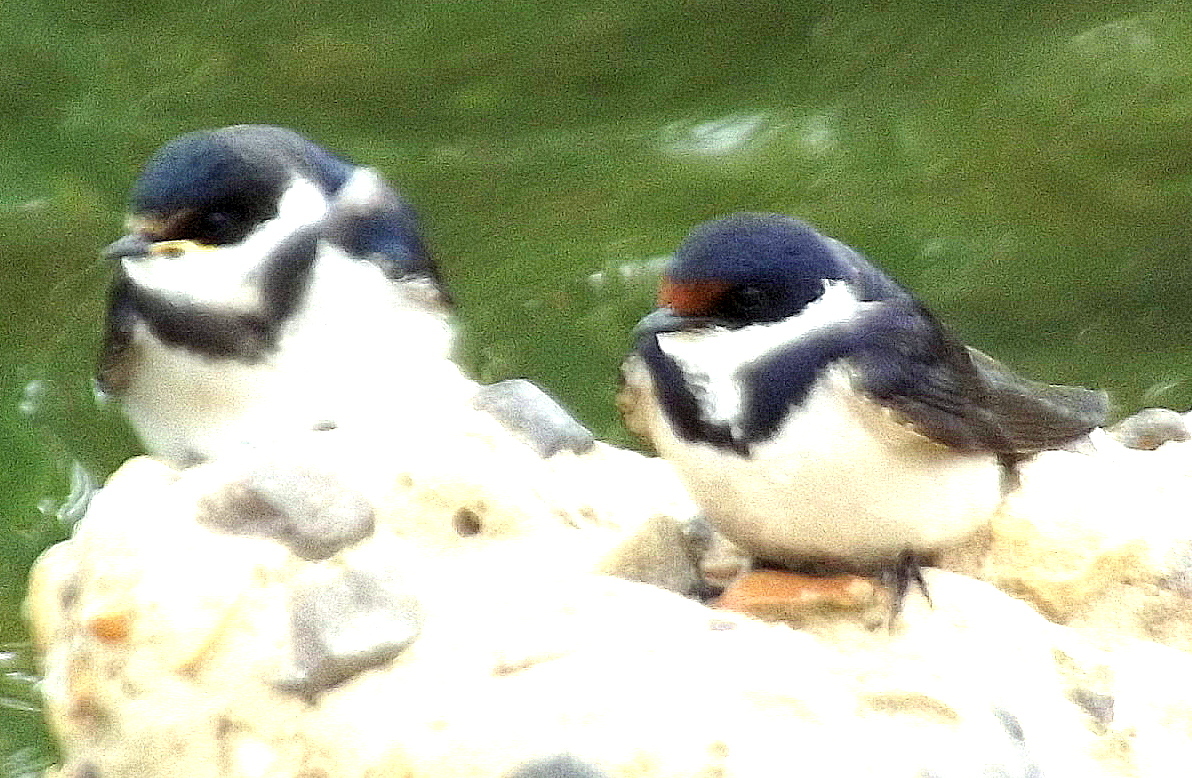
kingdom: Animalia
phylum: Chordata
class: Aves
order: Passeriformes
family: Hirundinidae
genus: Hirundo
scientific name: Hirundo albigularis
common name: White-throated swallow
